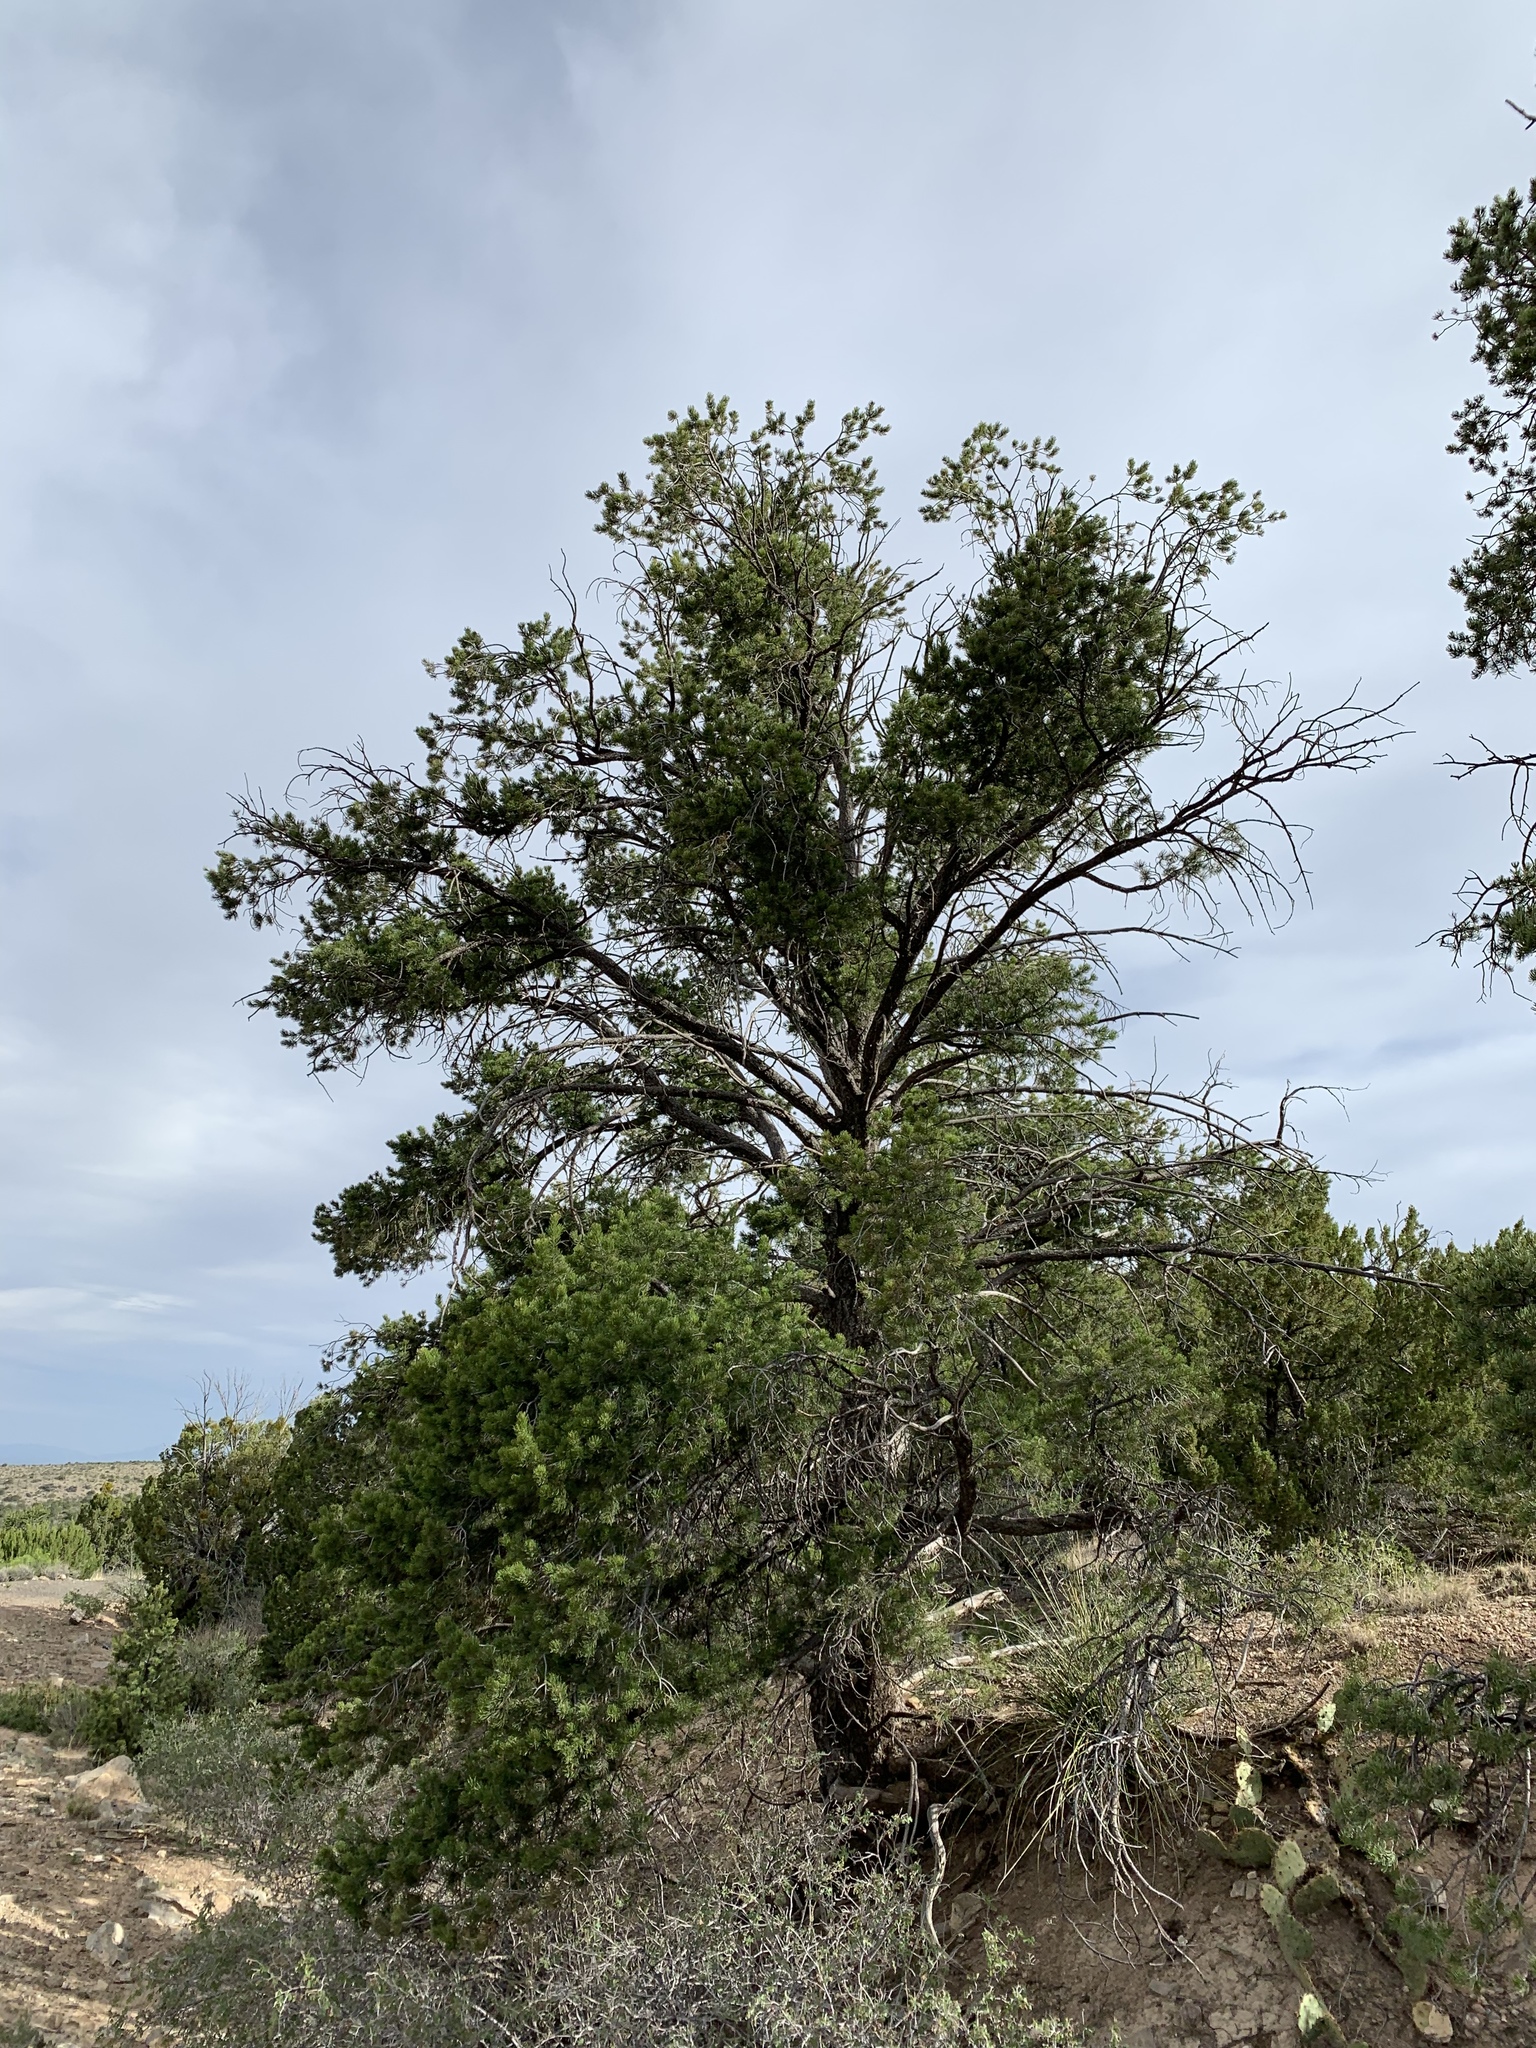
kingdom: Plantae
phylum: Tracheophyta
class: Pinopsida
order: Pinales
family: Pinaceae
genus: Pinus
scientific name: Pinus edulis
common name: Colorado pinyon
